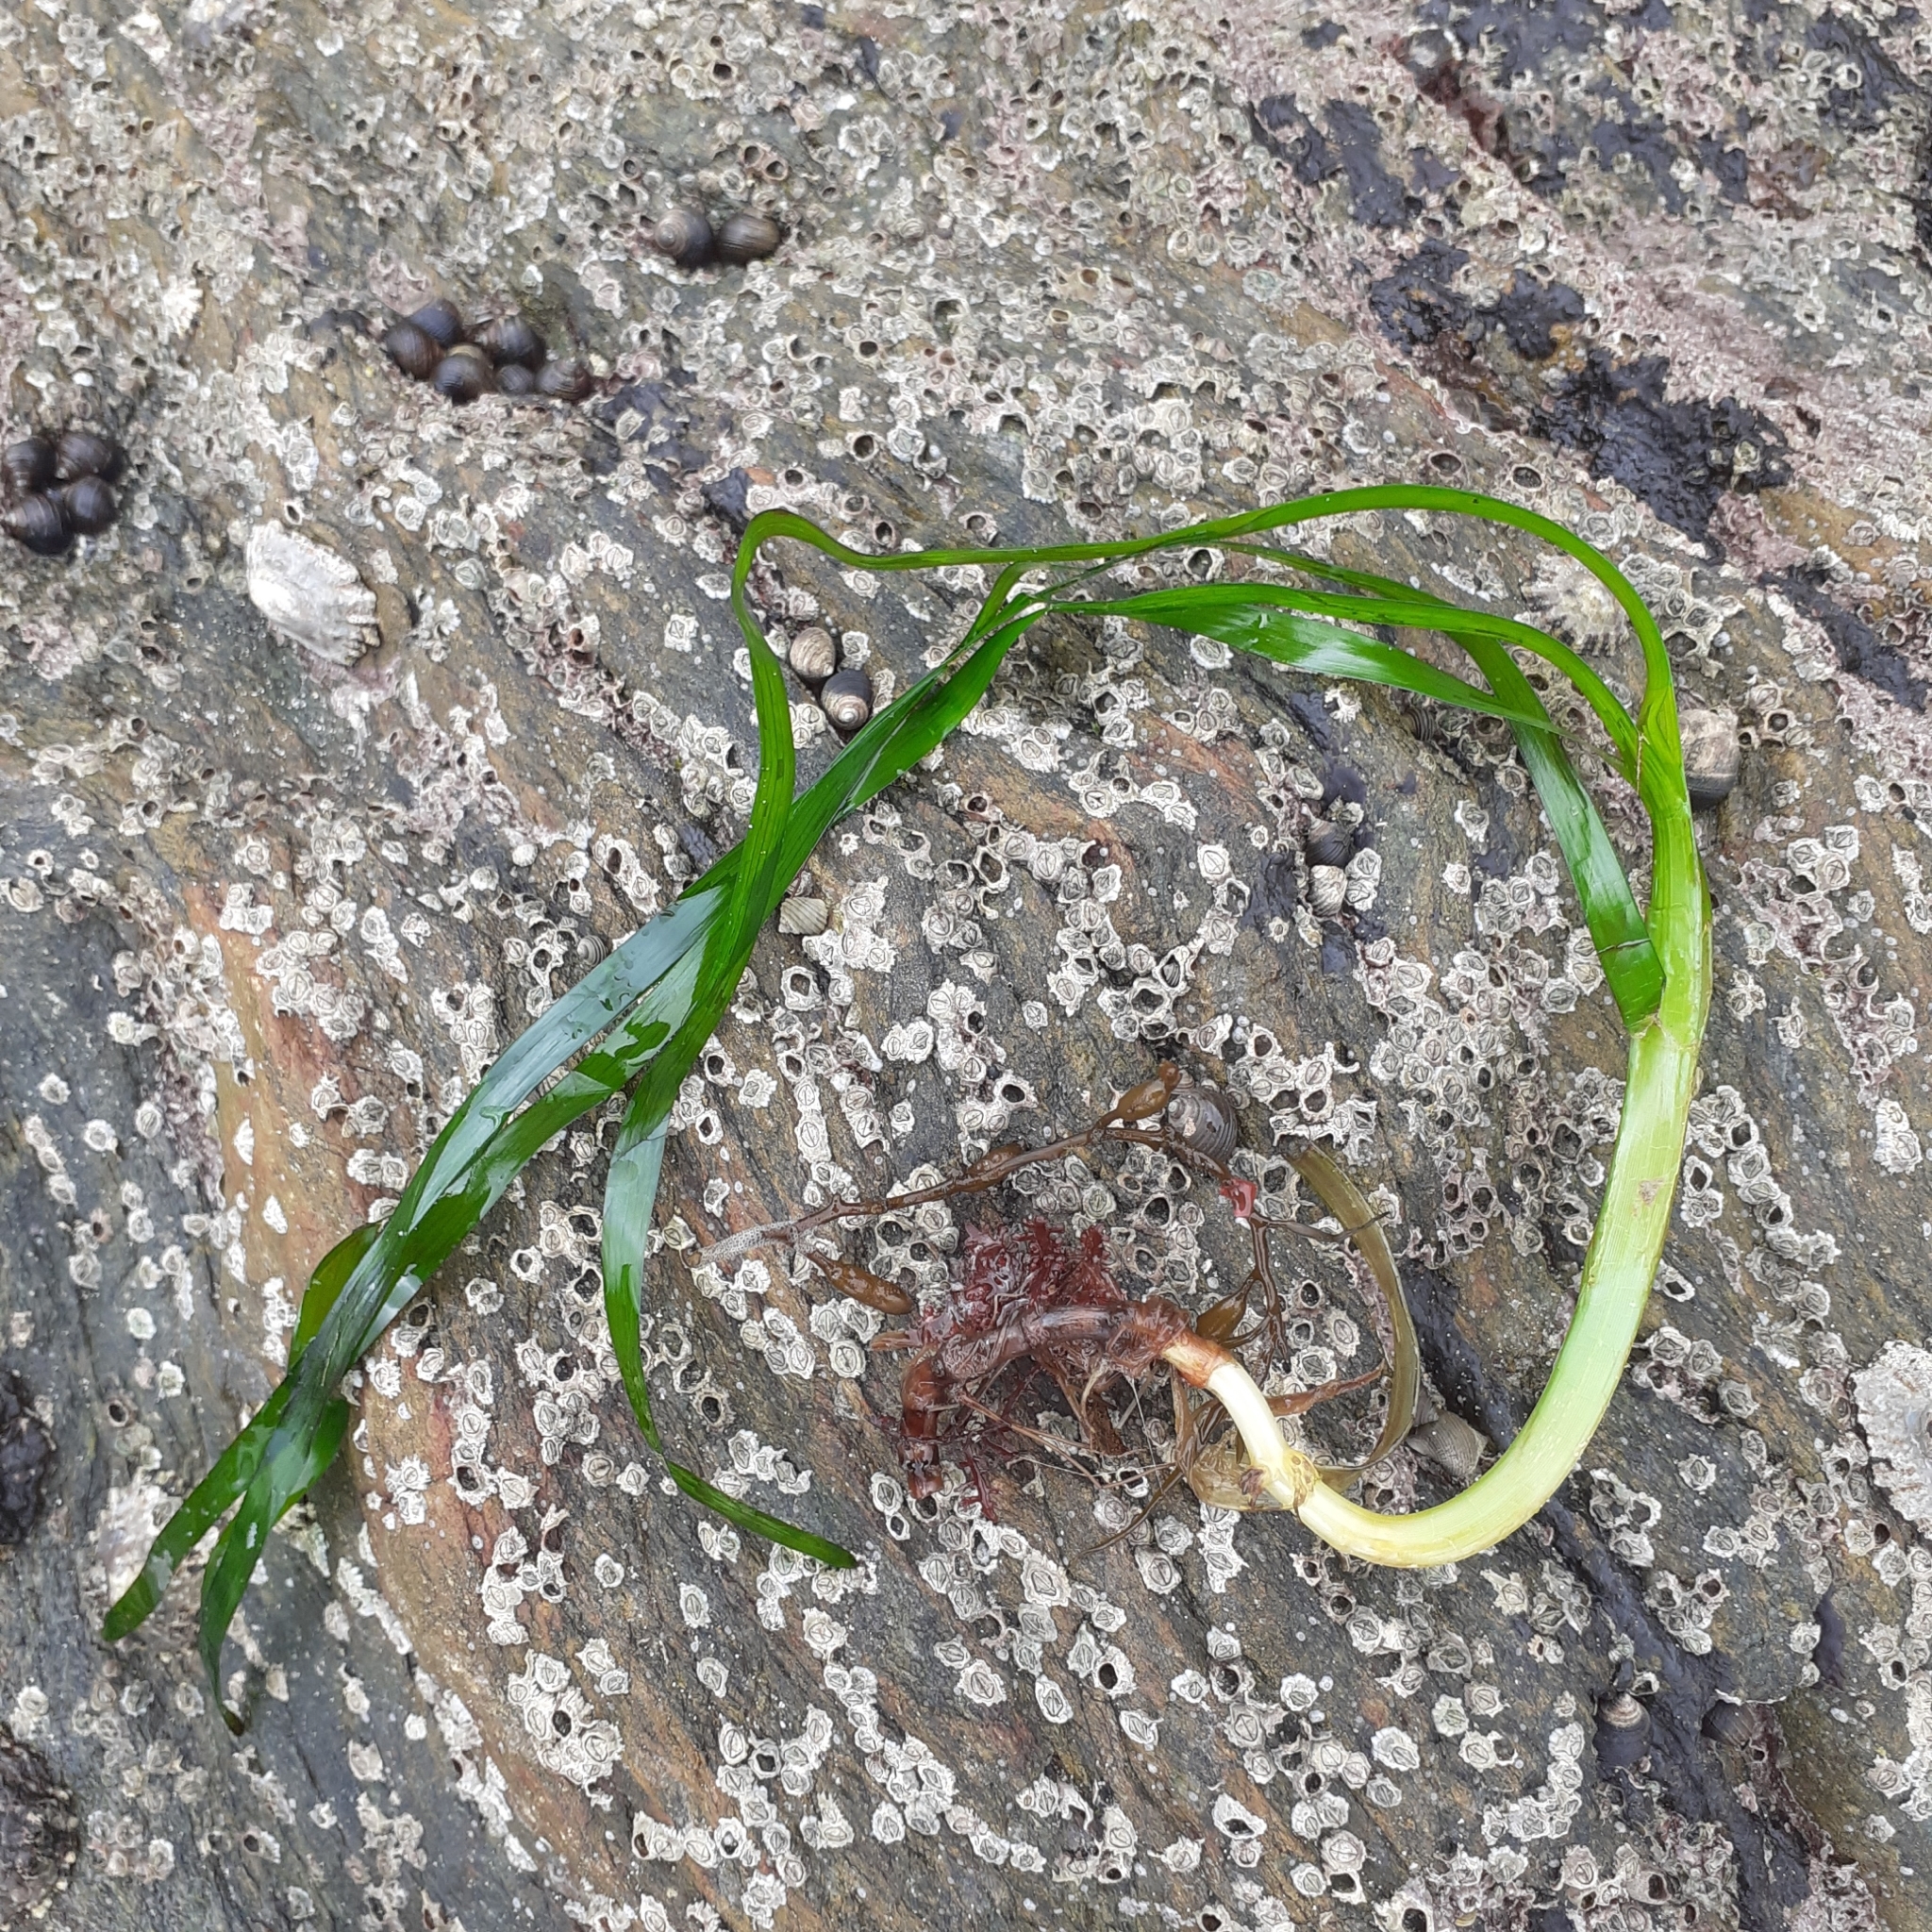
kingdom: Plantae
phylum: Tracheophyta
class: Liliopsida
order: Alismatales
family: Zosteraceae
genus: Zostera
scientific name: Zostera marina
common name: Eelgrass
